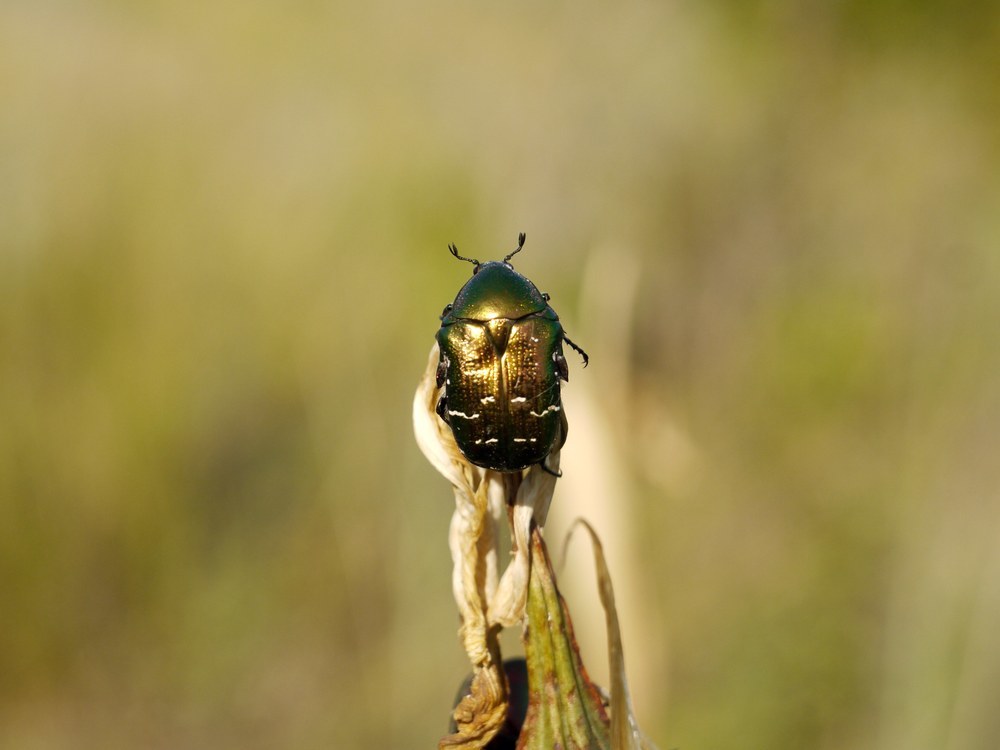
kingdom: Animalia
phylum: Arthropoda
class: Insecta
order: Coleoptera
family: Scarabaeidae
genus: Cetonia
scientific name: Cetonia aurata
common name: Rose chafer
